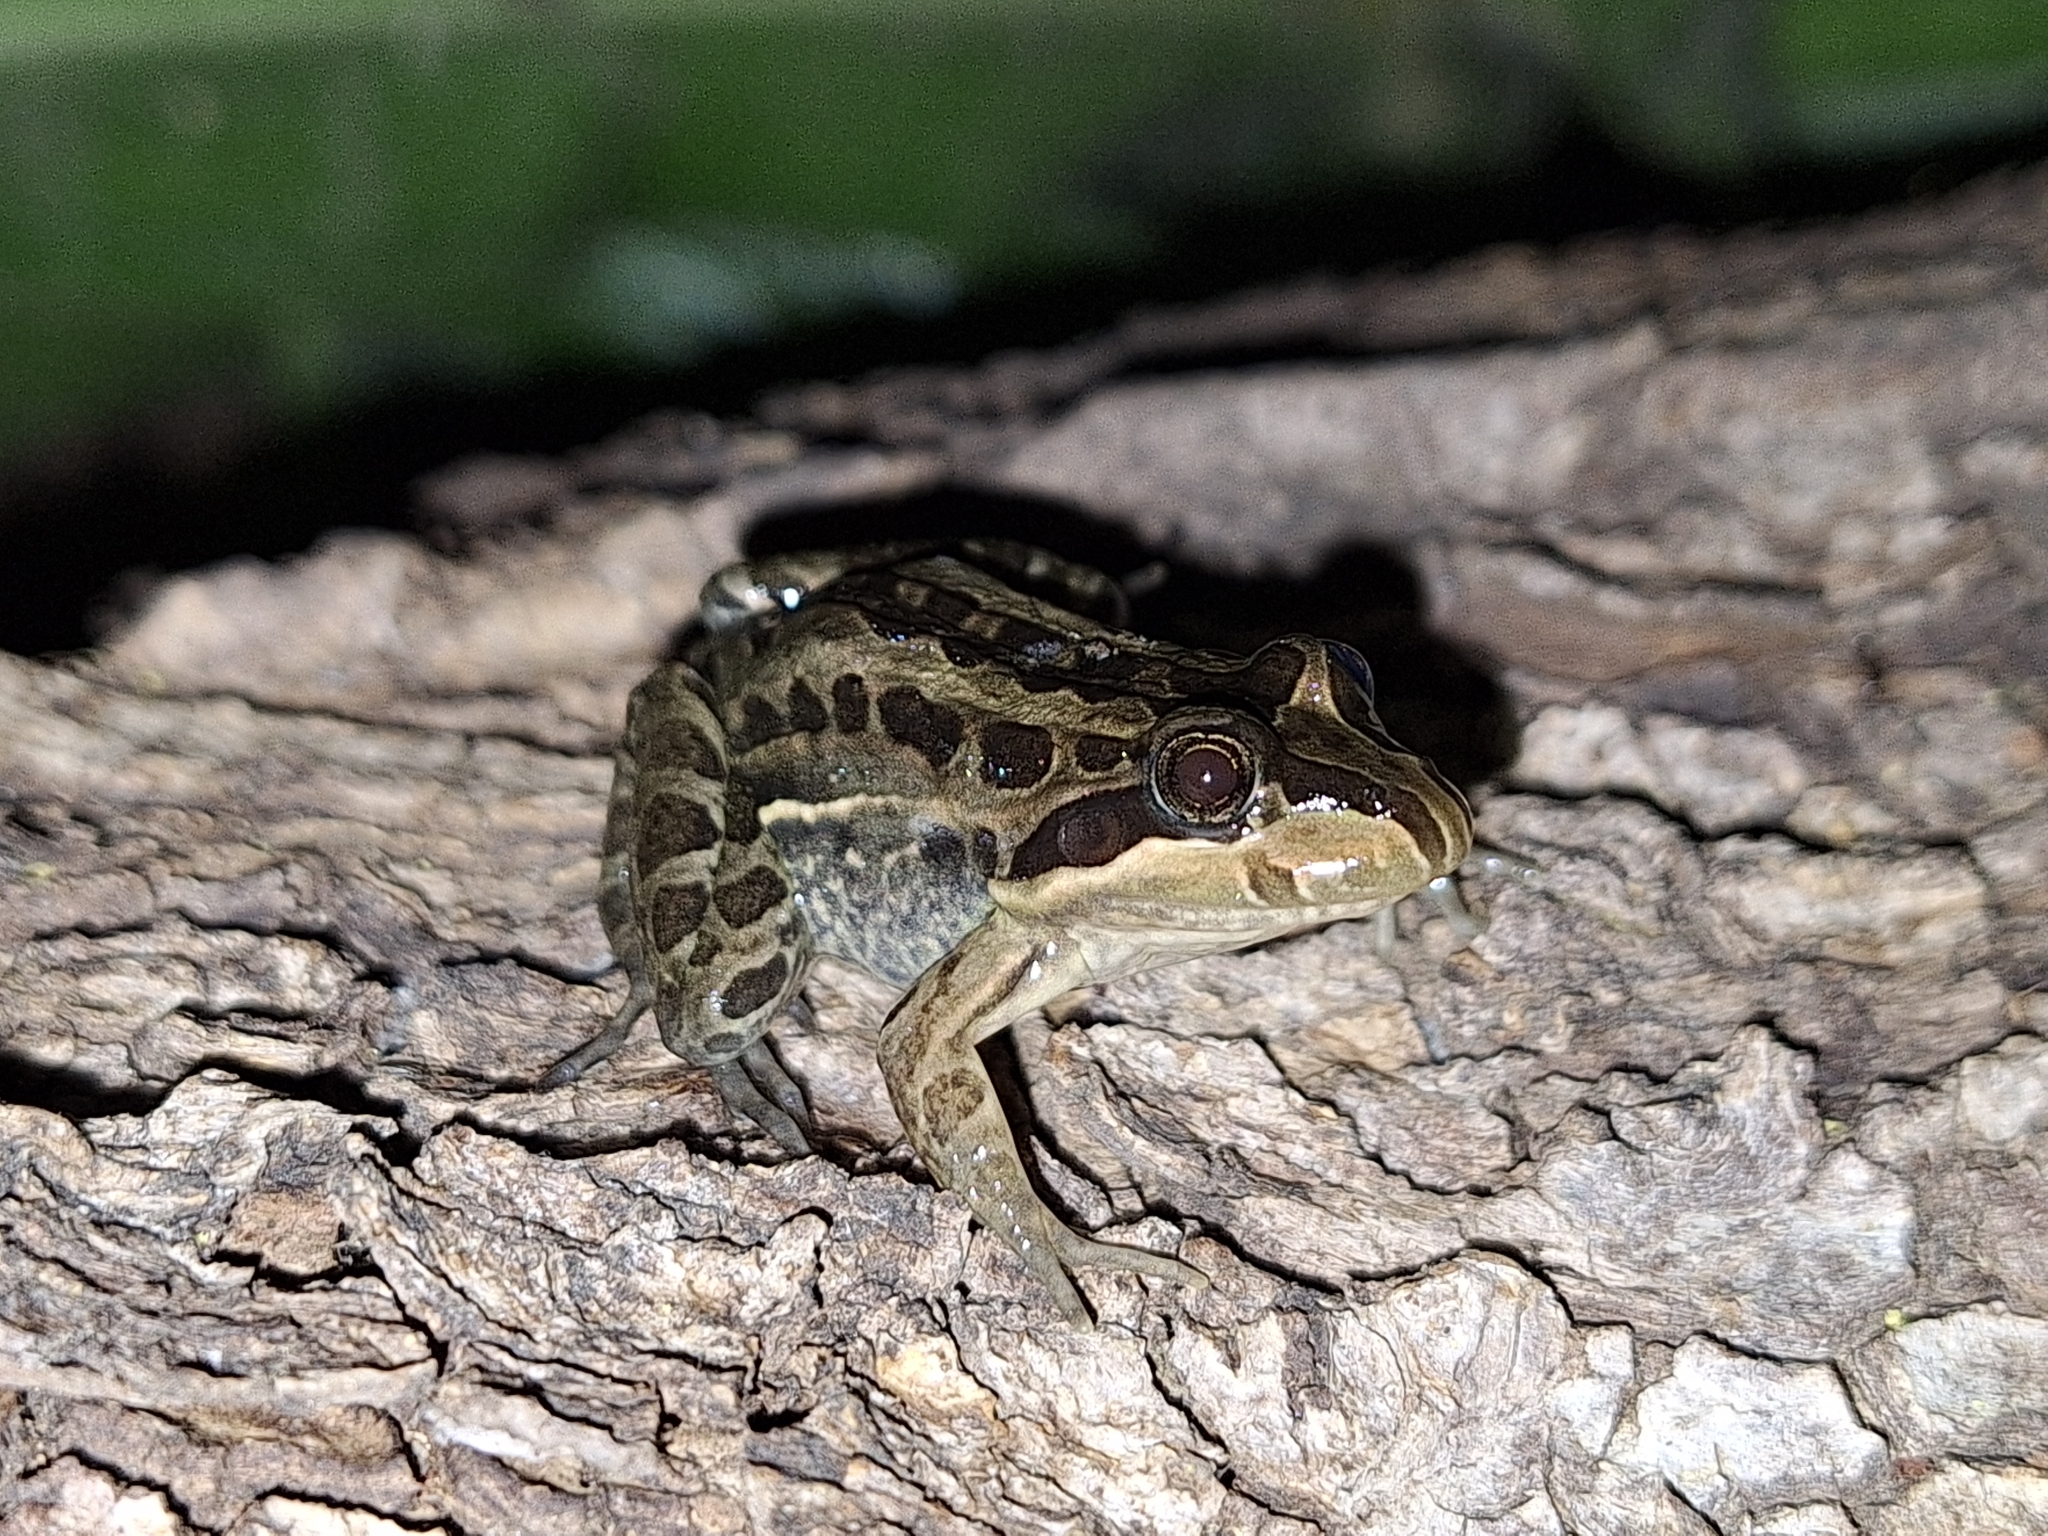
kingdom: Animalia
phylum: Chordata
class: Amphibia
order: Anura
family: Leptodactylidae
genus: Leptodactylus
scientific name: Leptodactylus luctator
